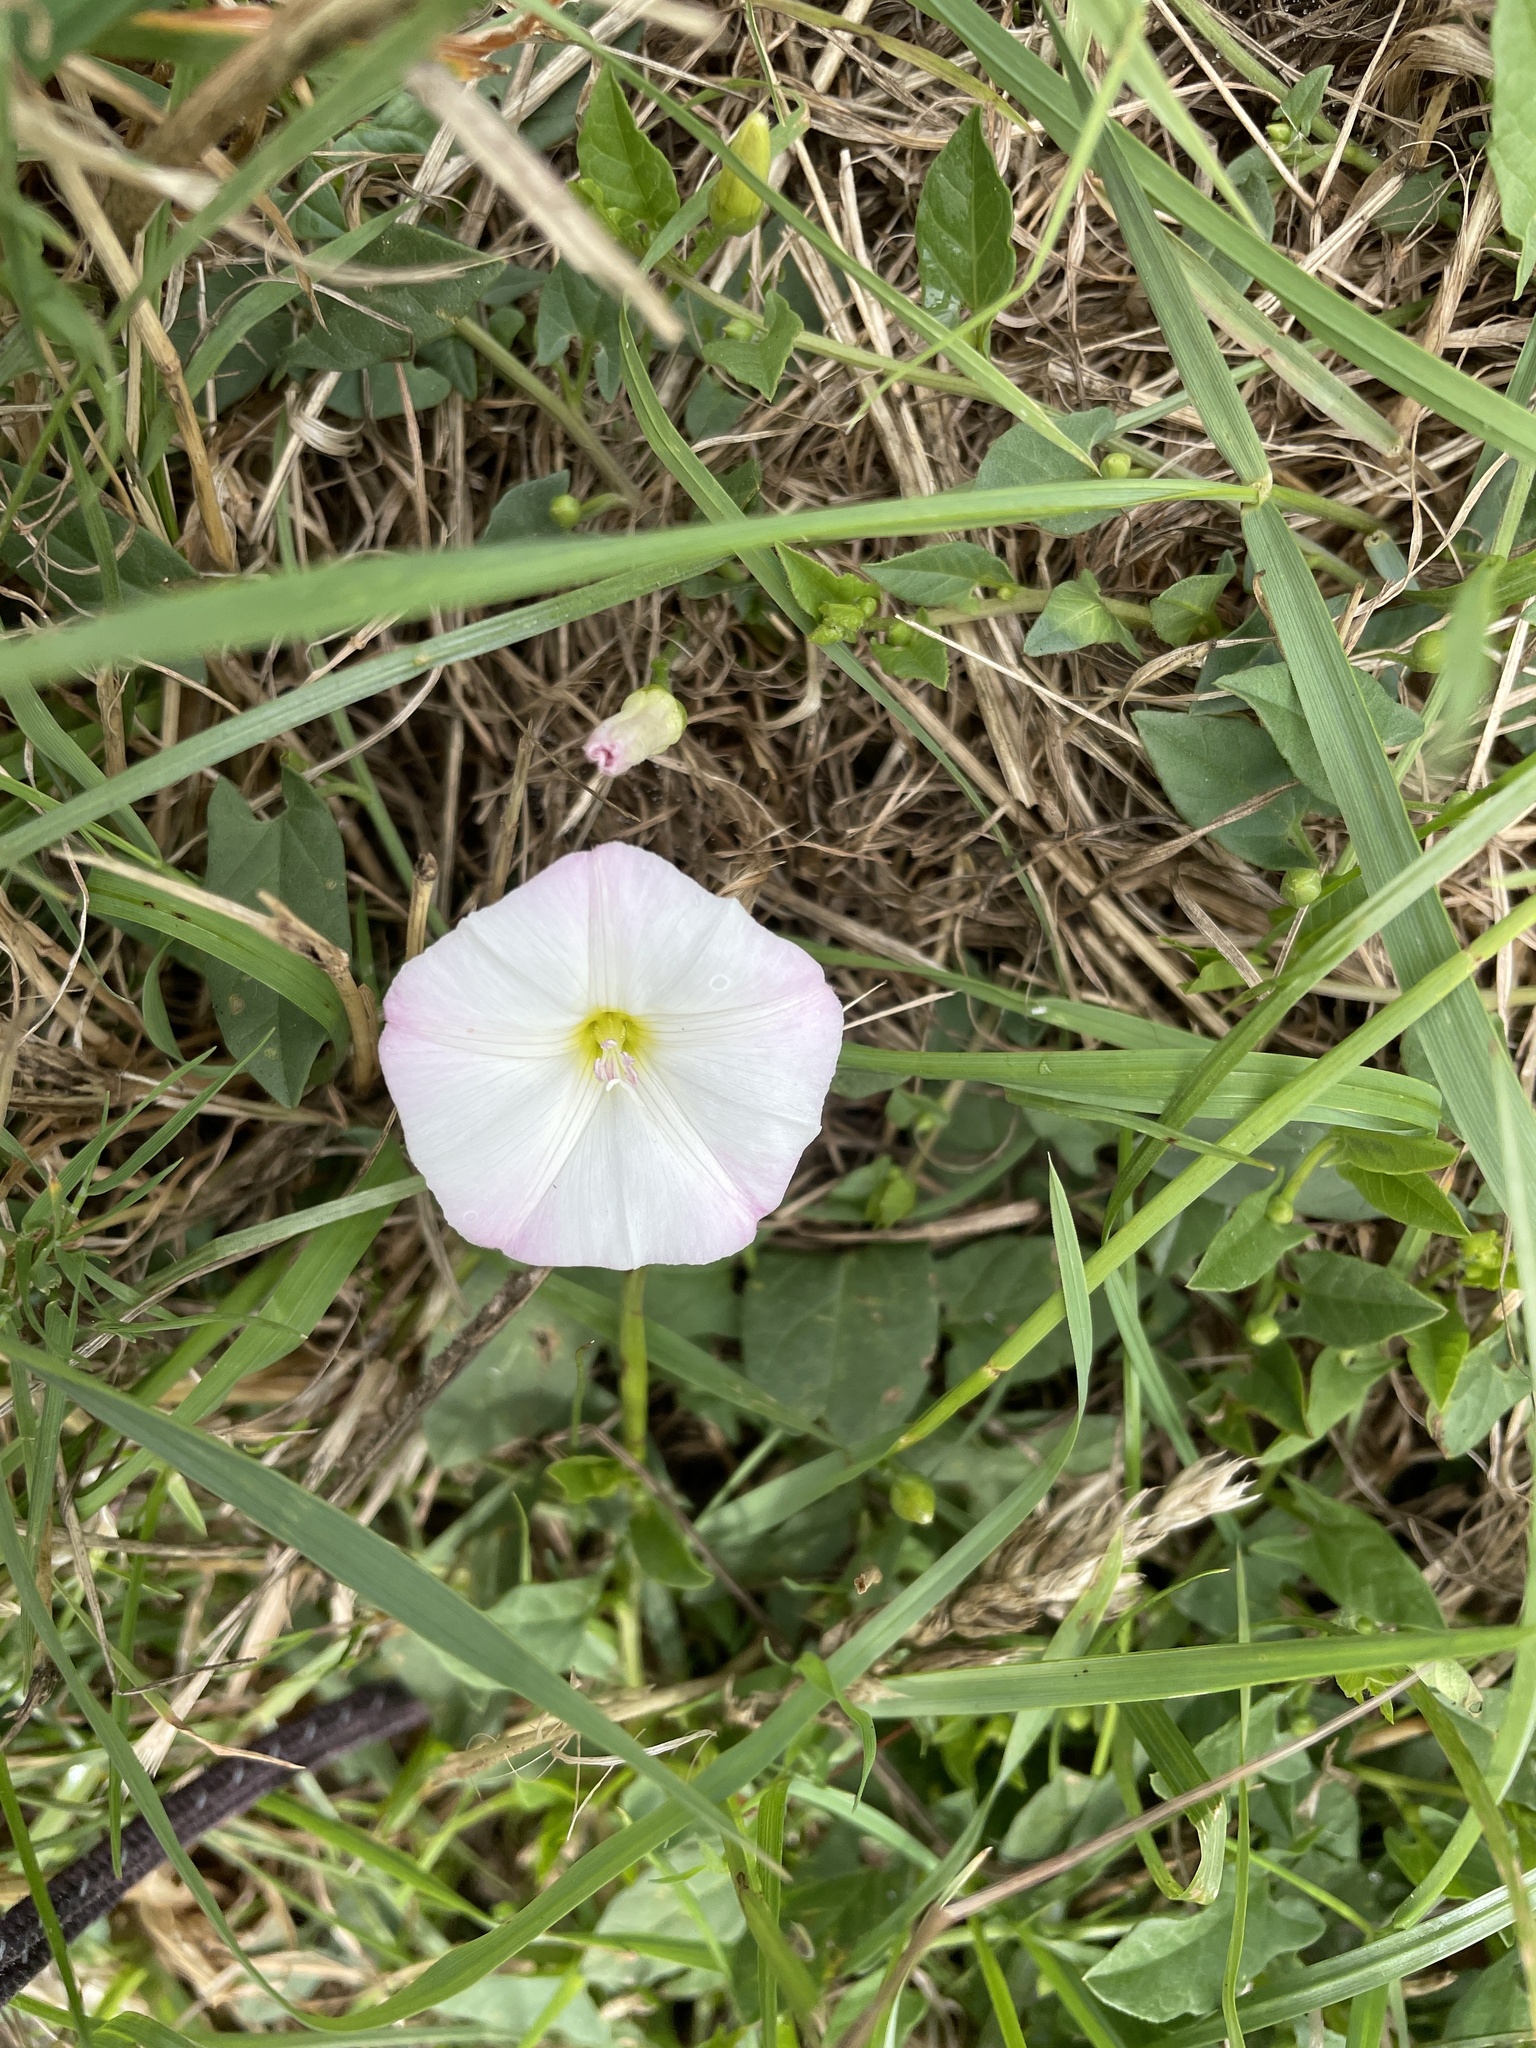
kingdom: Plantae
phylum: Tracheophyta
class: Magnoliopsida
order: Solanales
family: Convolvulaceae
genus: Convolvulus
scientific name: Convolvulus arvensis
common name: Field bindweed
